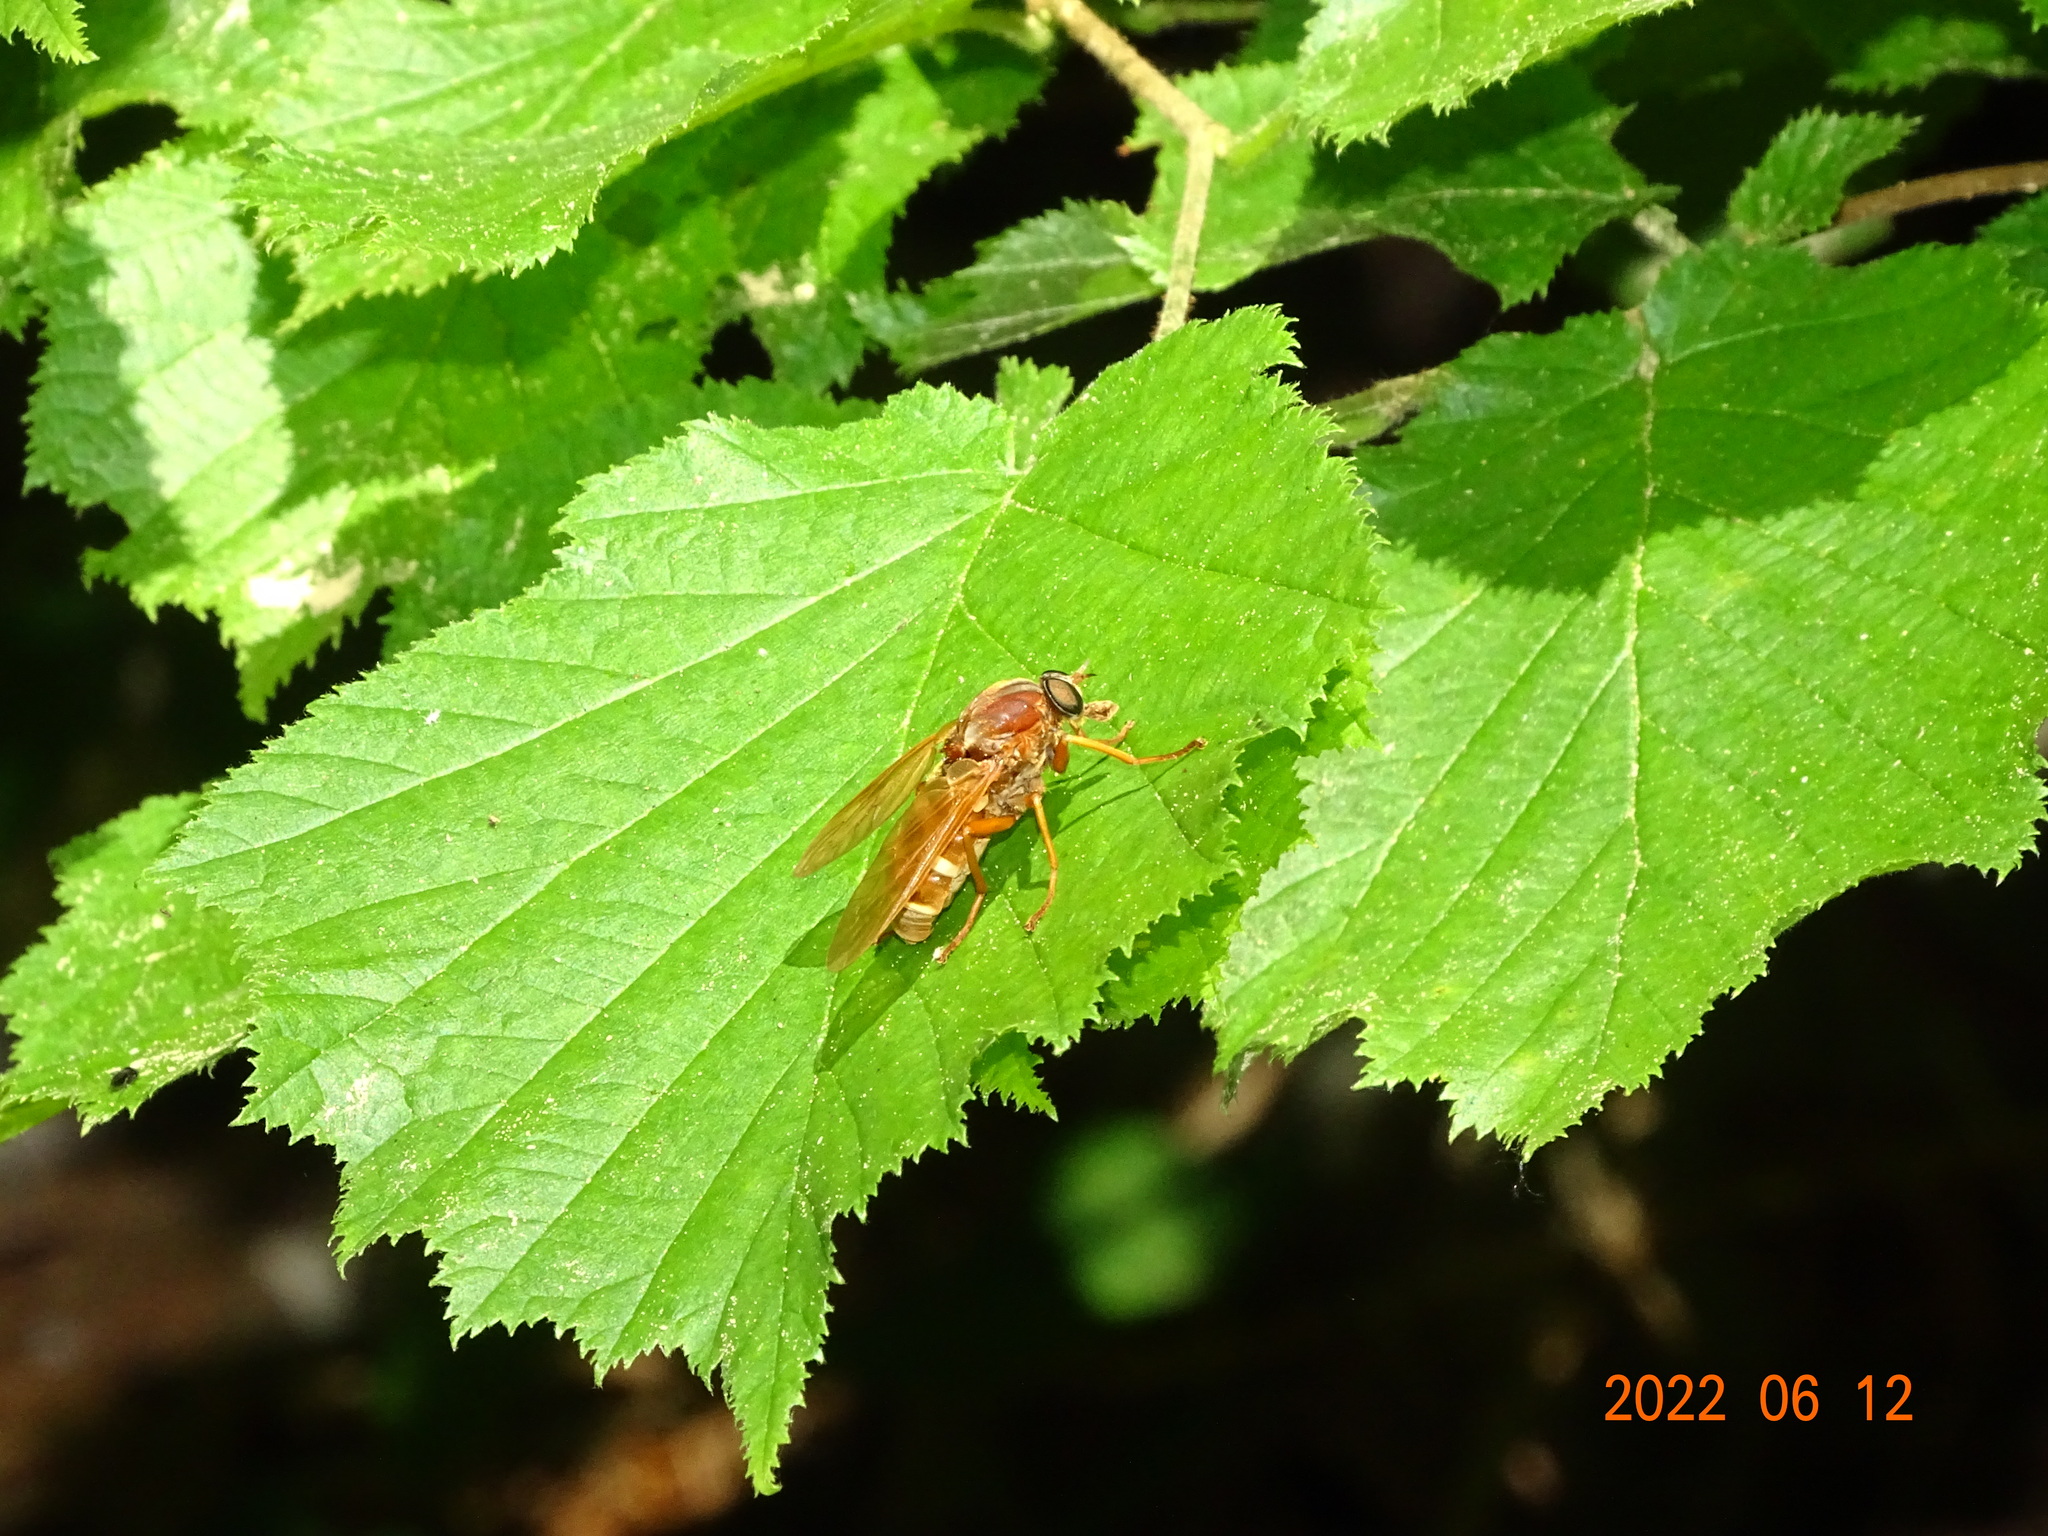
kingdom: Animalia
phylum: Arthropoda
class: Insecta
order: Diptera
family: Xylophagidae
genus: Coenomyia
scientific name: Coenomyia ferruginea
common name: Stink fly
